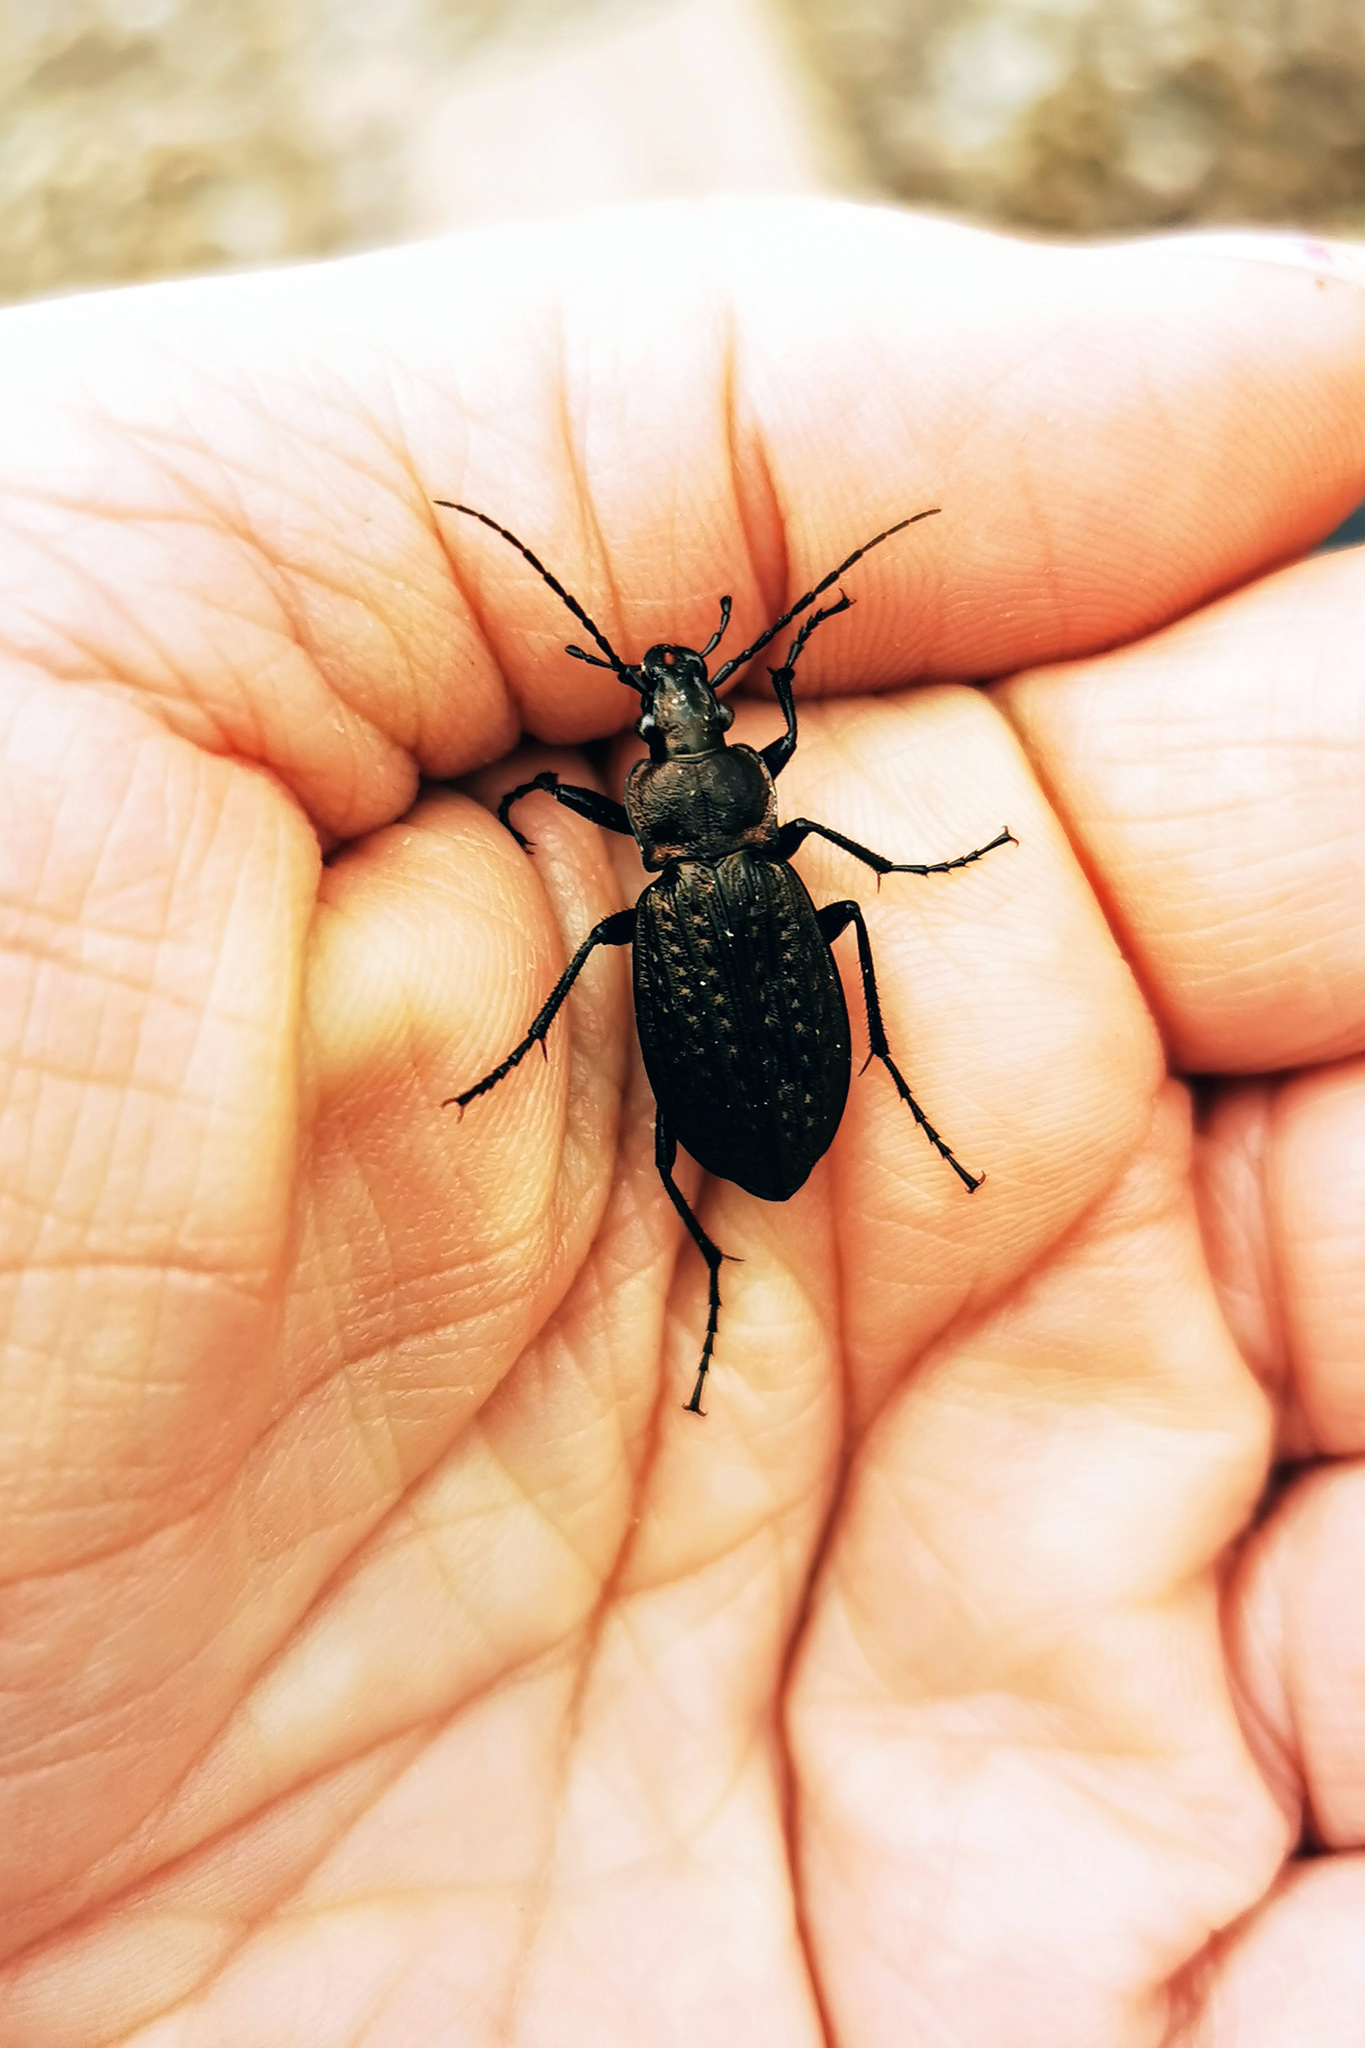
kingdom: Animalia
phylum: Arthropoda
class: Insecta
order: Coleoptera
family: Carabidae
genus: Carabus
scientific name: Carabus granulatus
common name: Granulate ground beetle
